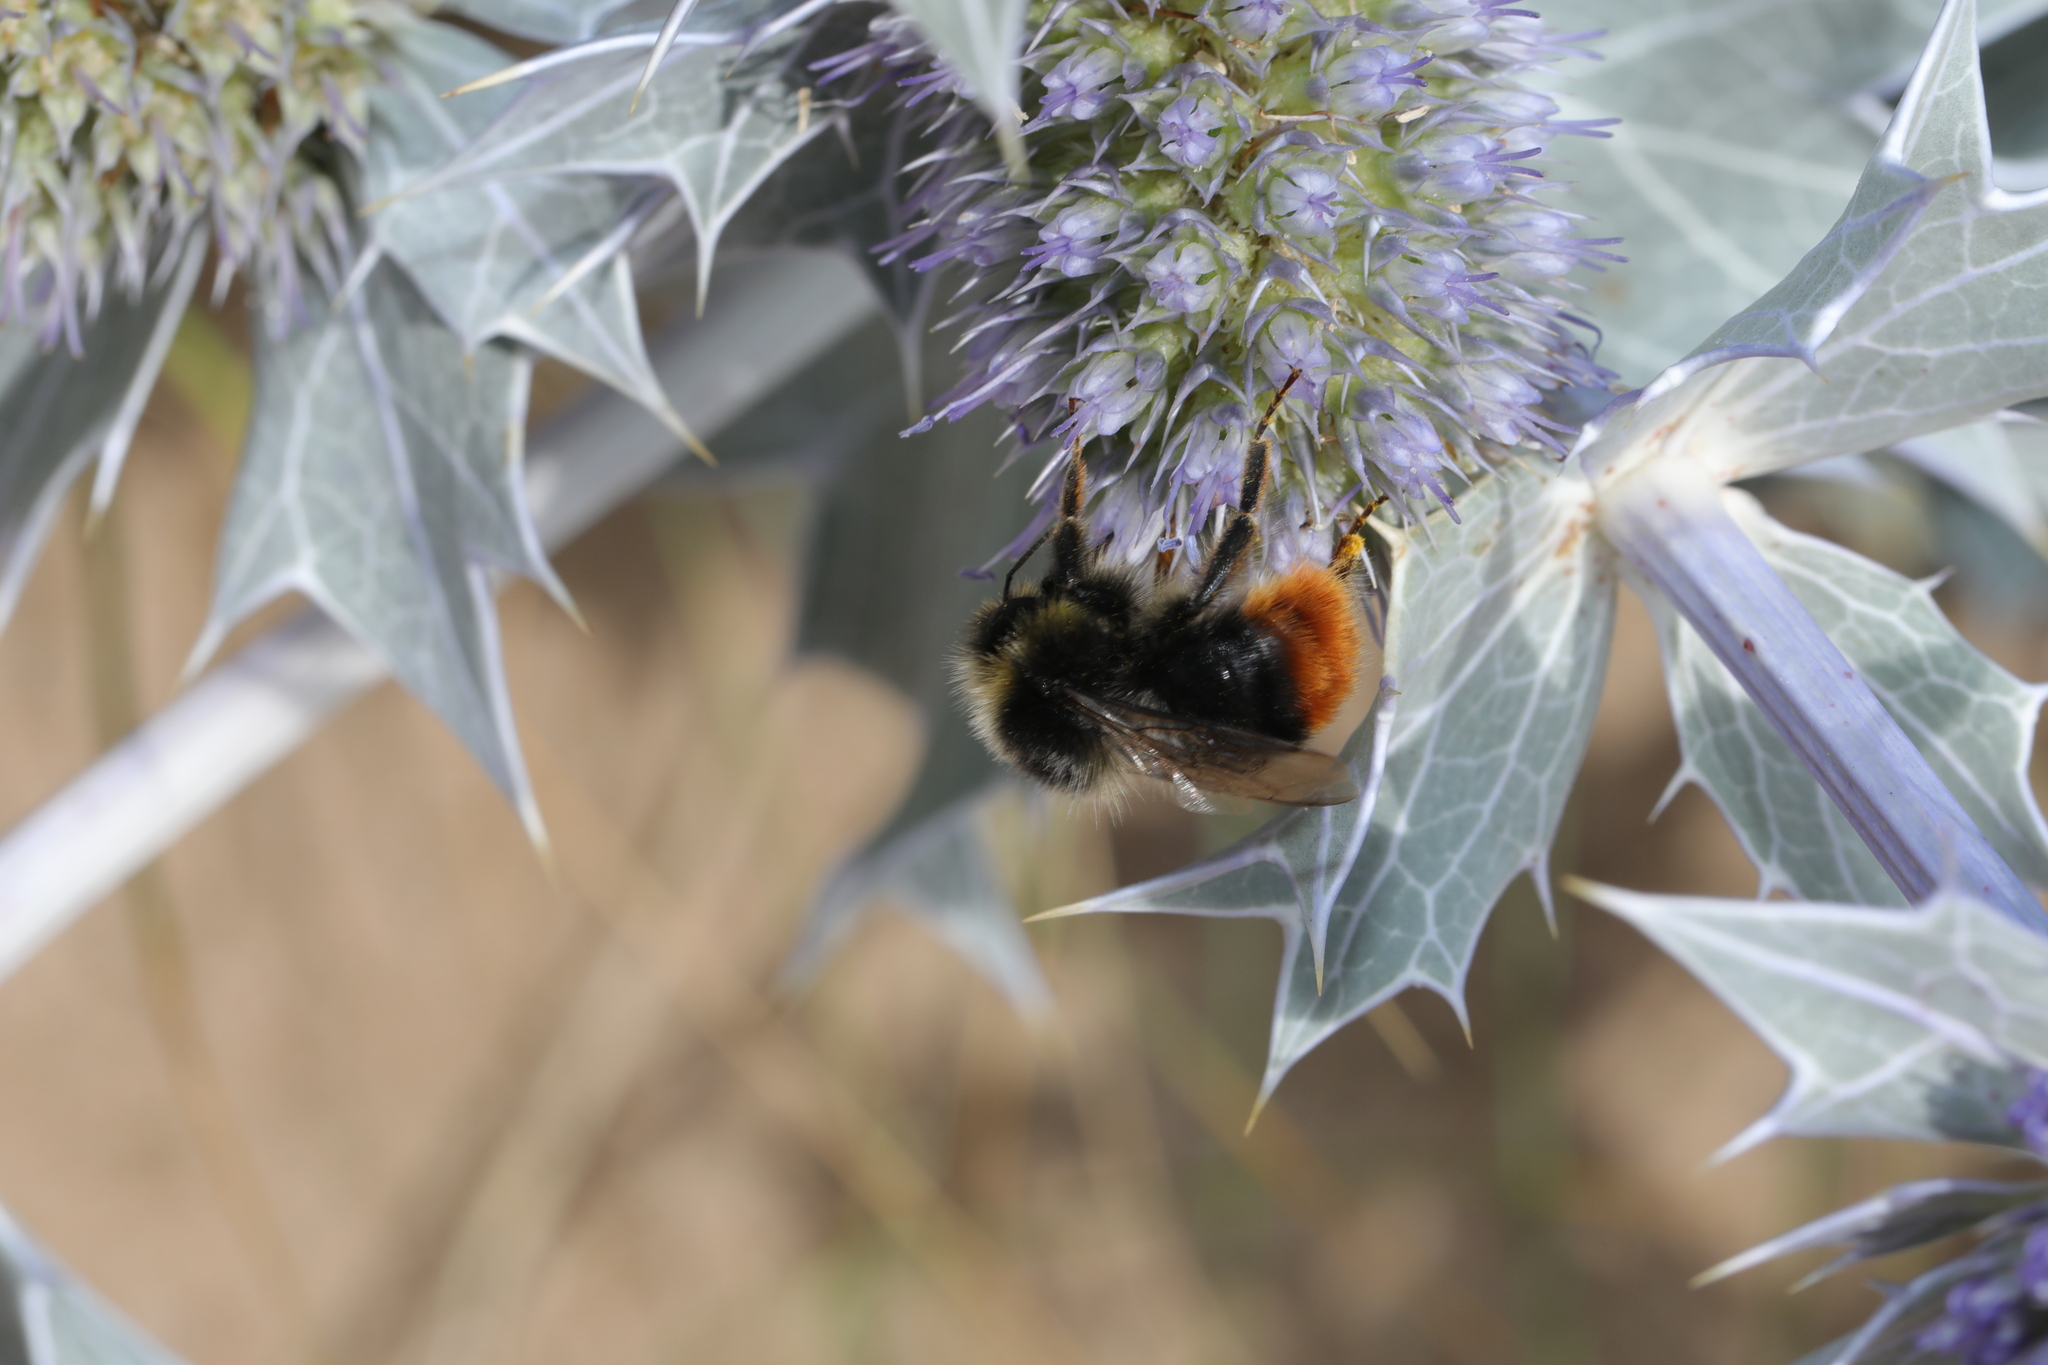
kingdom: Animalia
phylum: Arthropoda
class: Insecta
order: Hymenoptera
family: Apidae
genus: Bombus
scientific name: Bombus lapidarius
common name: Large red-tailed humble-bee
